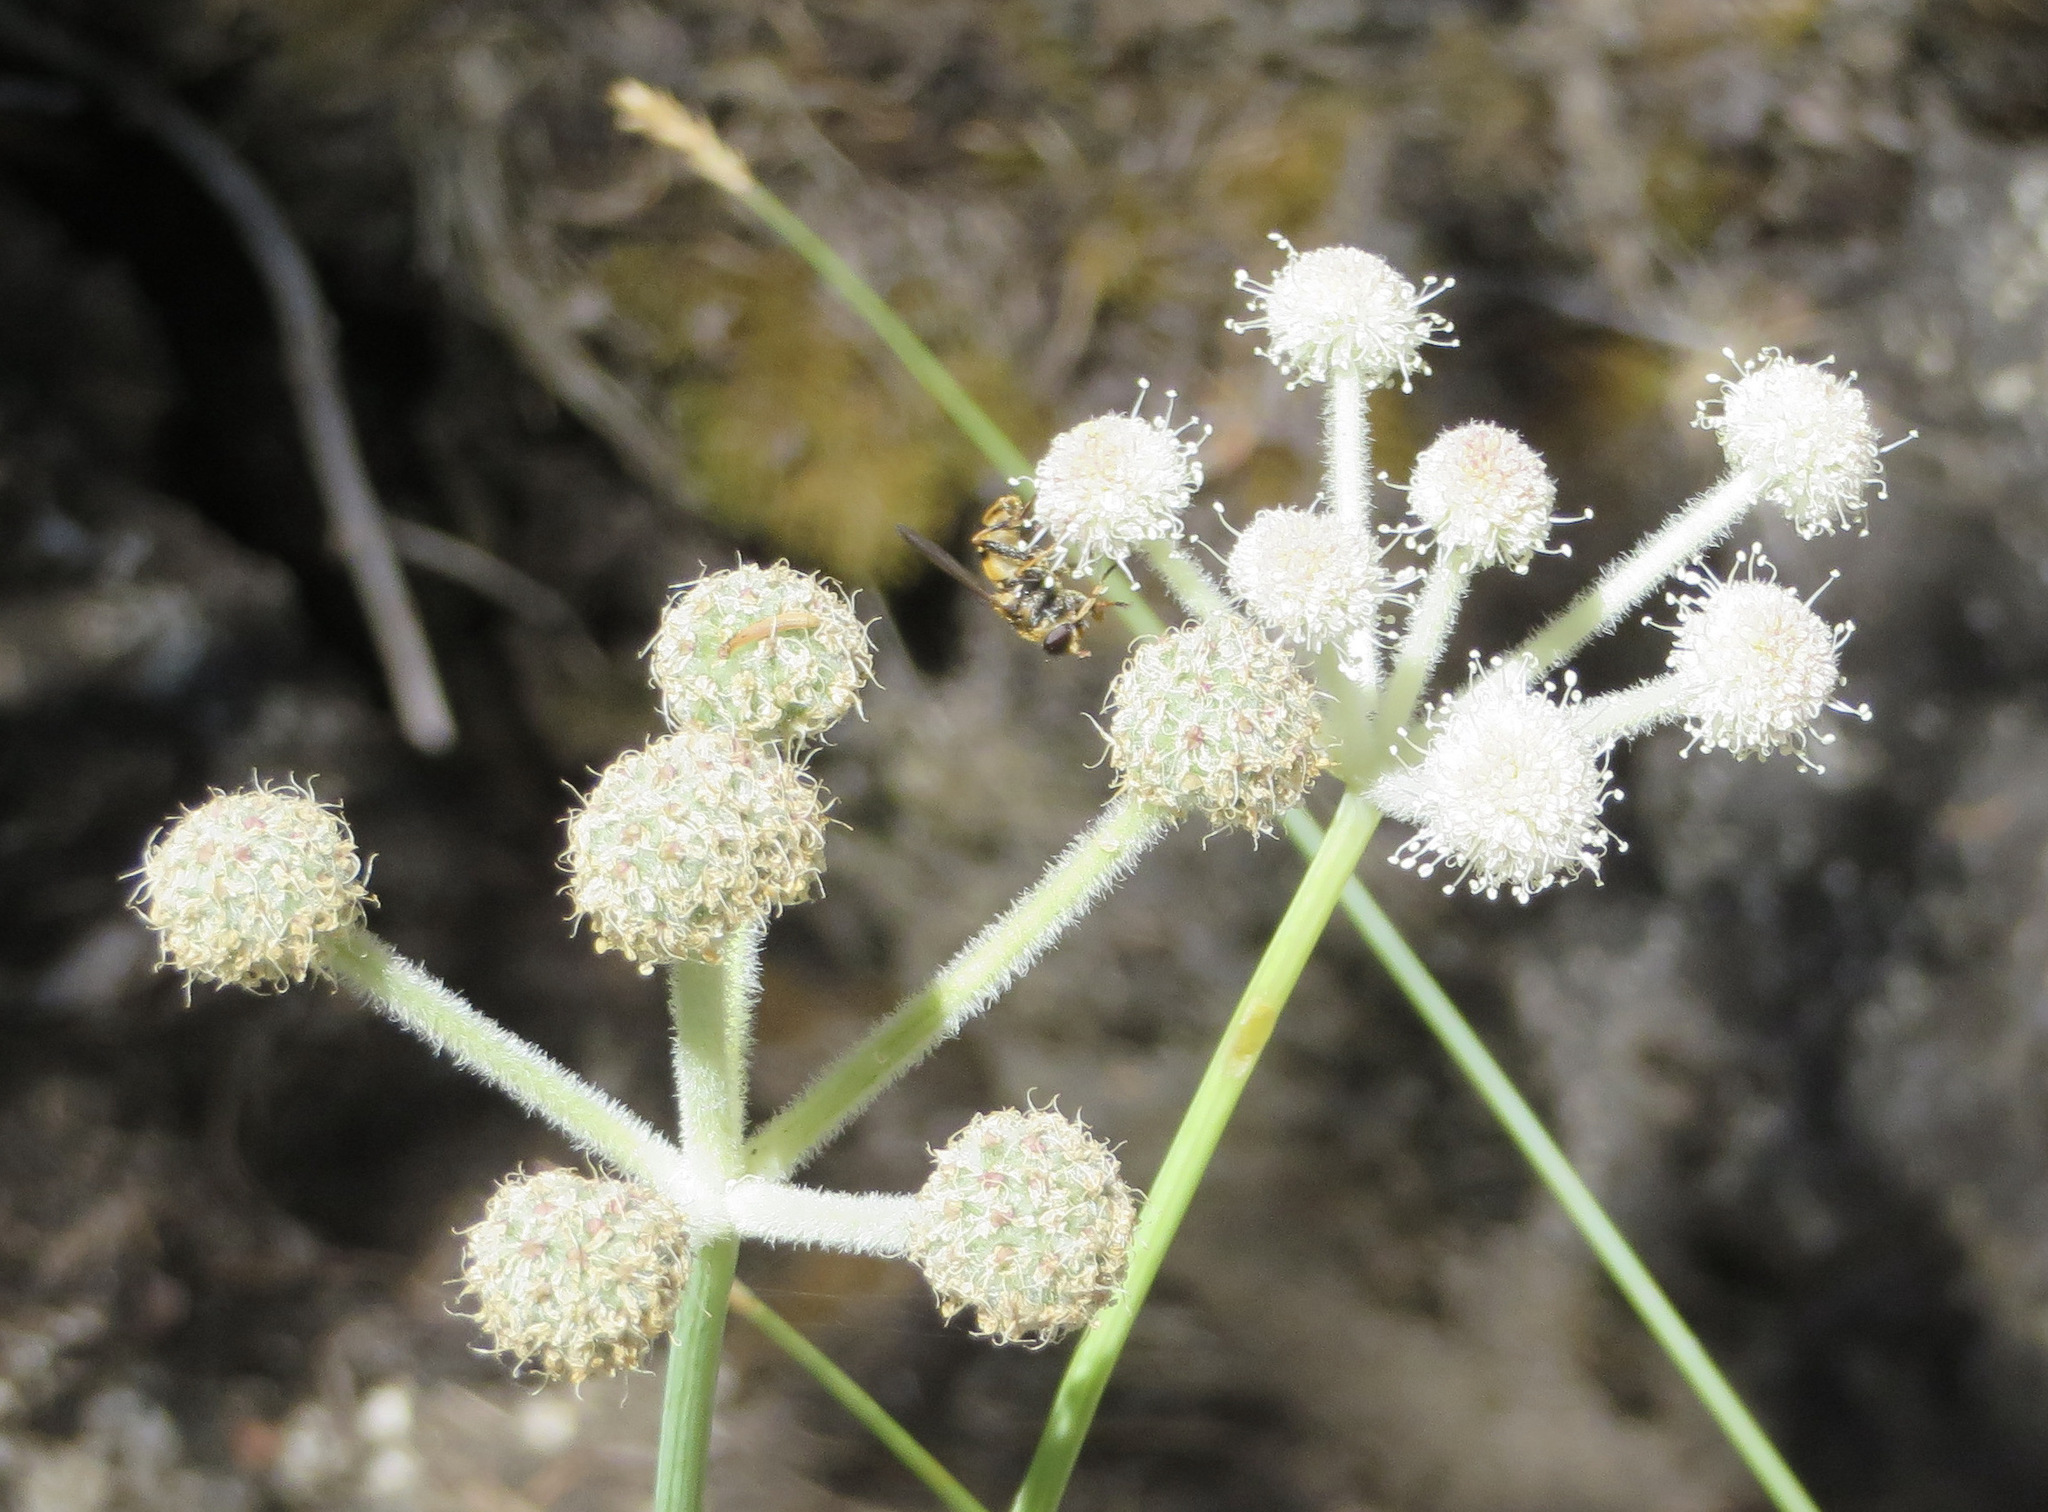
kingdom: Plantae
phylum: Tracheophyta
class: Magnoliopsida
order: Apiales
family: Apiaceae
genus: Angelica
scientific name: Angelica capitellata
